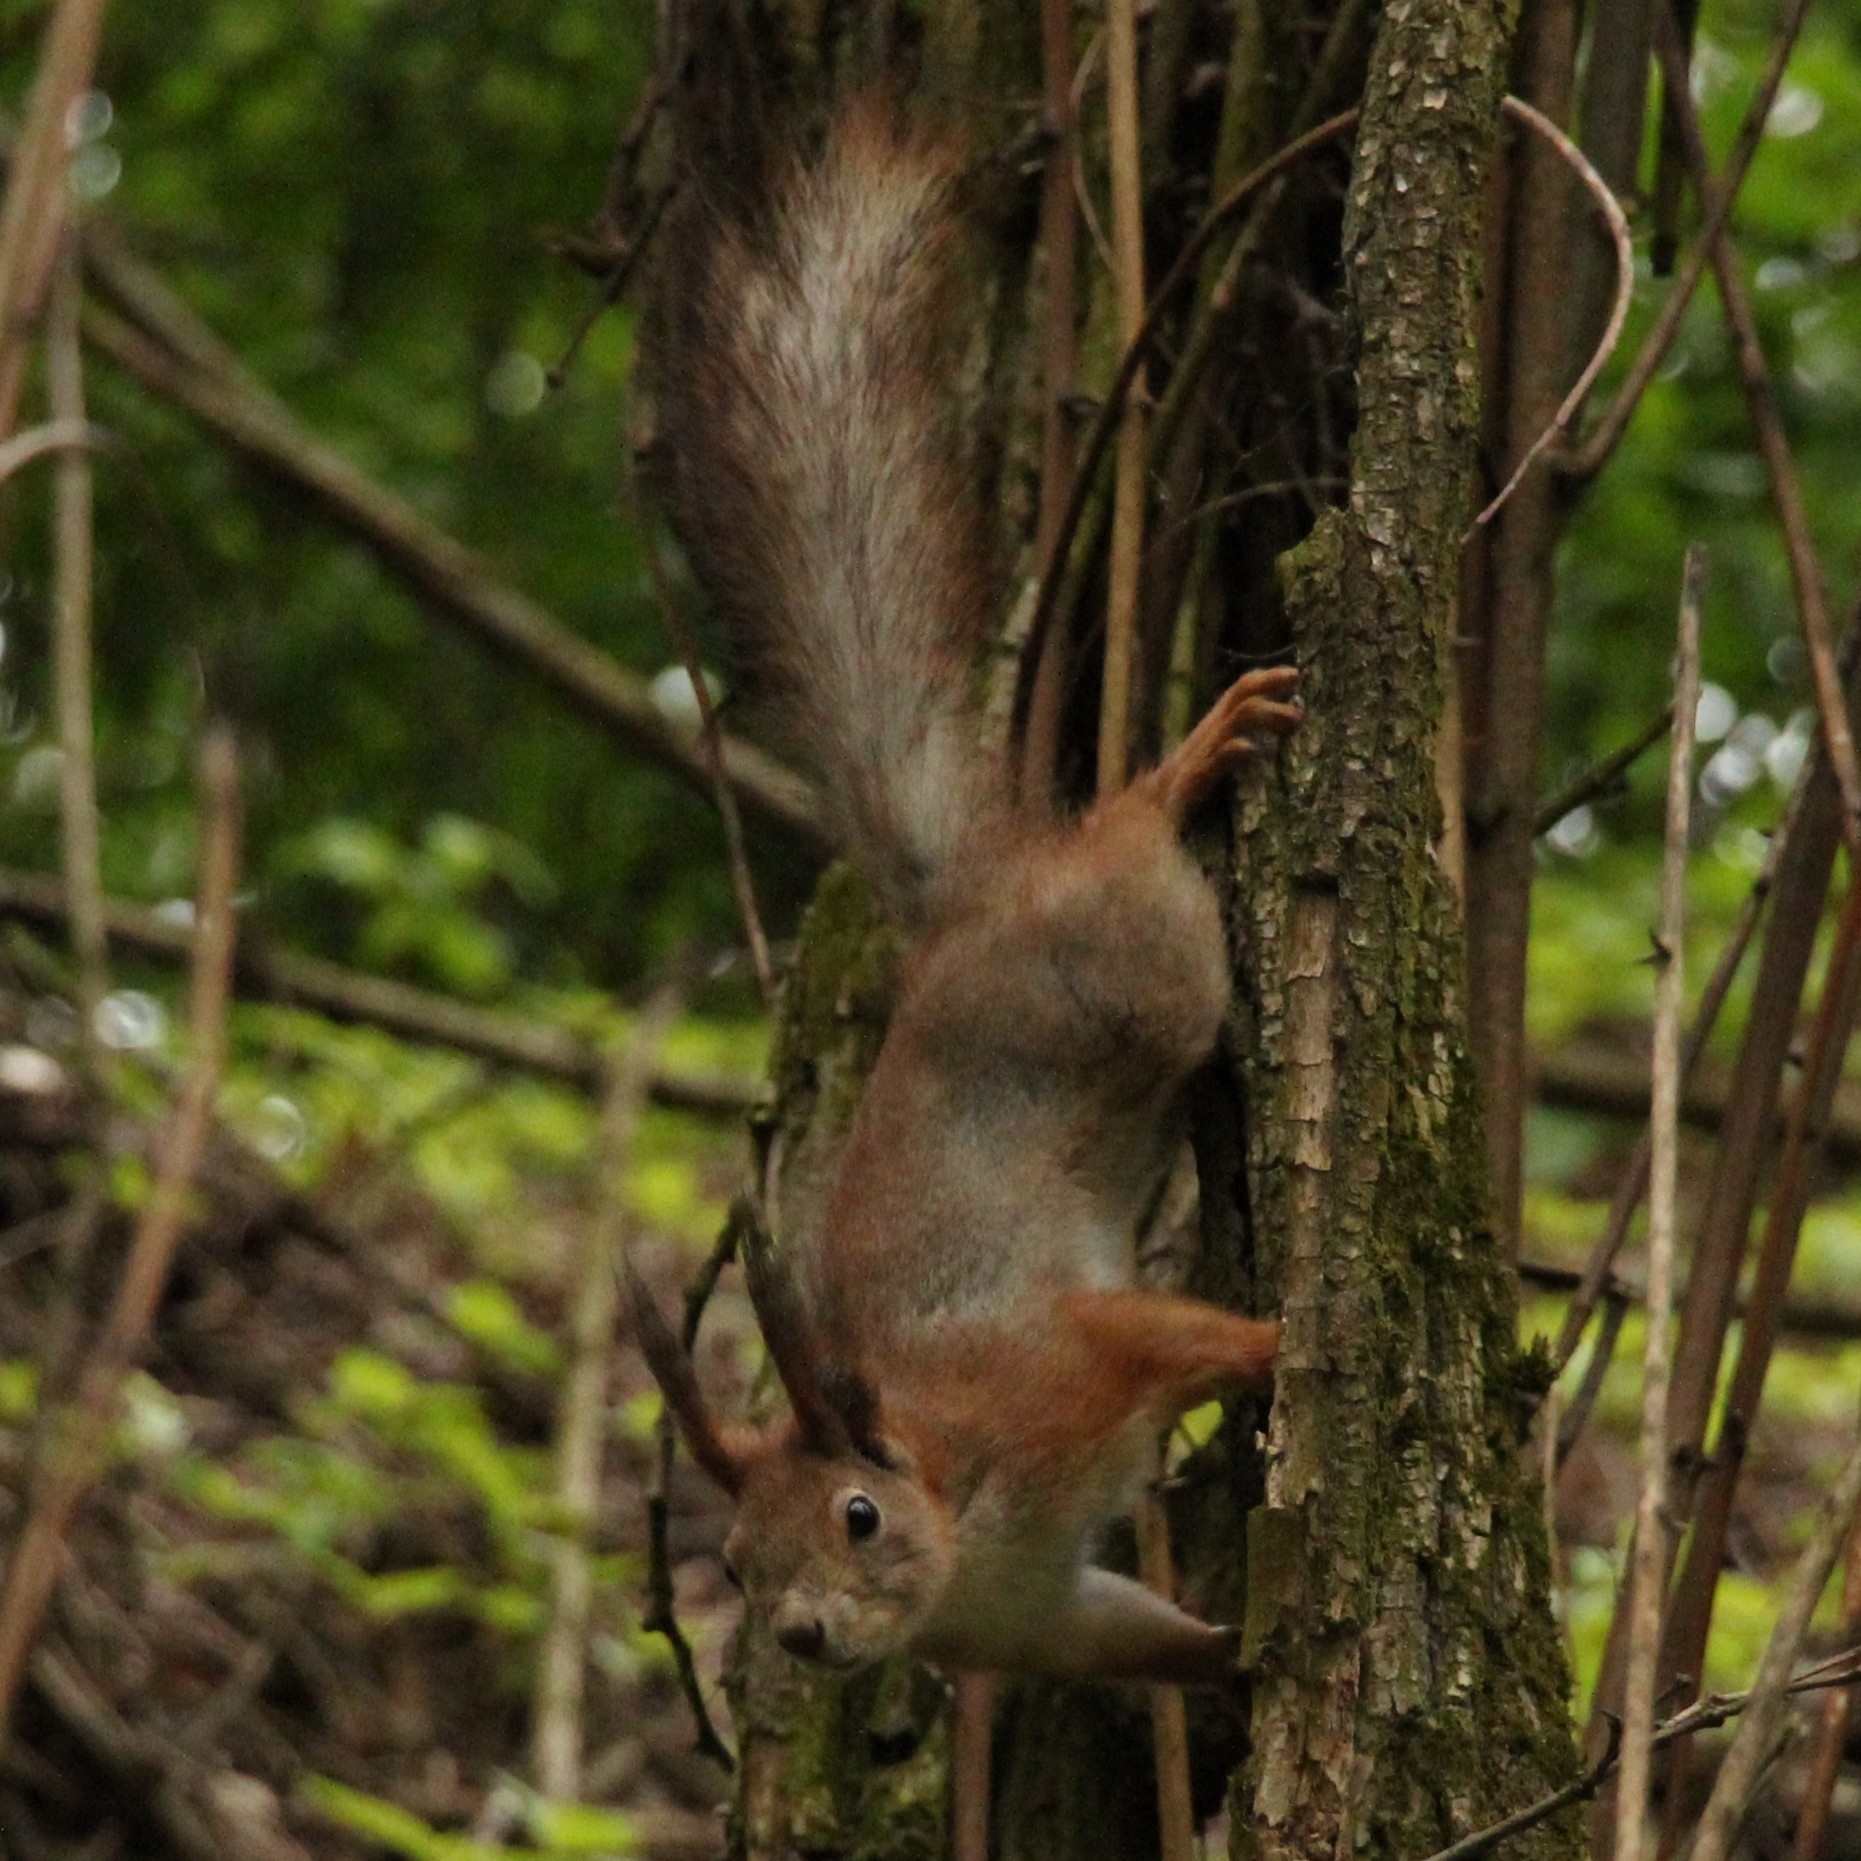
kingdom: Animalia
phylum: Chordata
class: Mammalia
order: Rodentia
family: Sciuridae
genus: Sciurus
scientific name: Sciurus vulgaris
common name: Eurasian red squirrel
